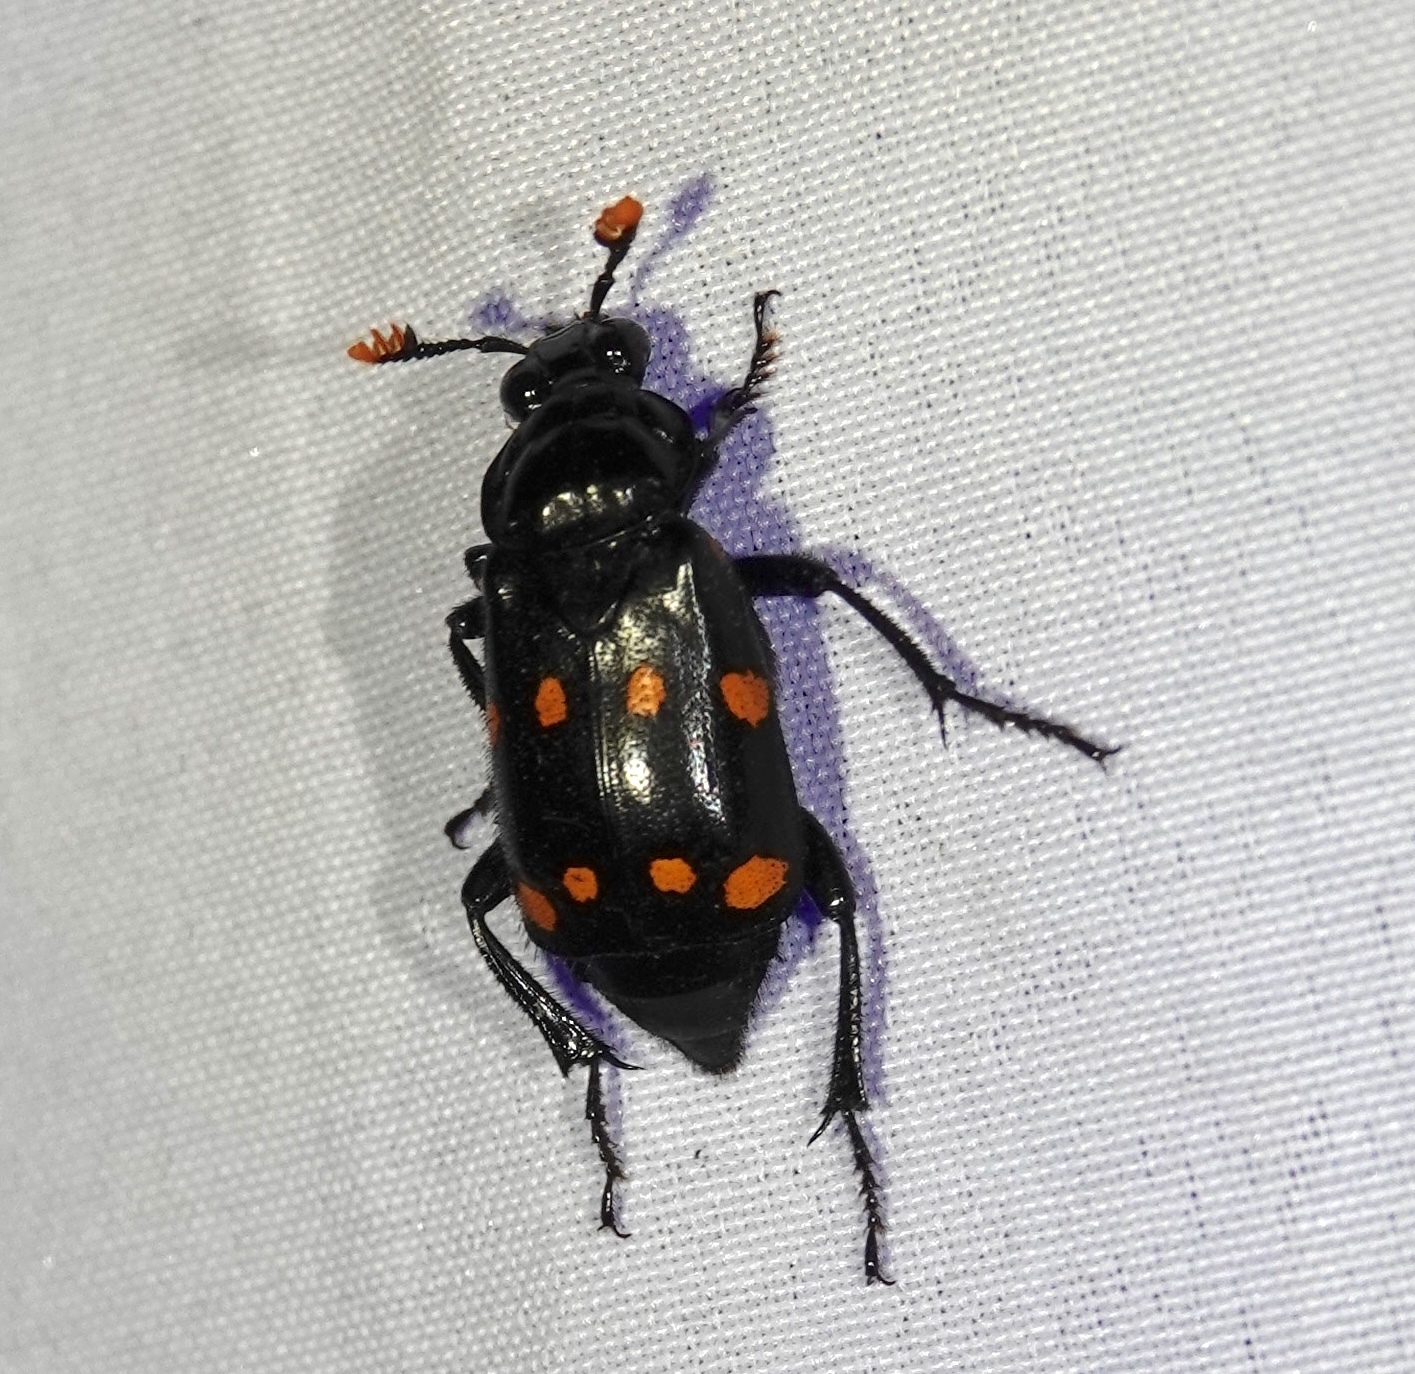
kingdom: Animalia
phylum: Arthropoda
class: Insecta
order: Coleoptera
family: Staphylinidae
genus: Nicrophorus
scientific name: Nicrophorus didymus
